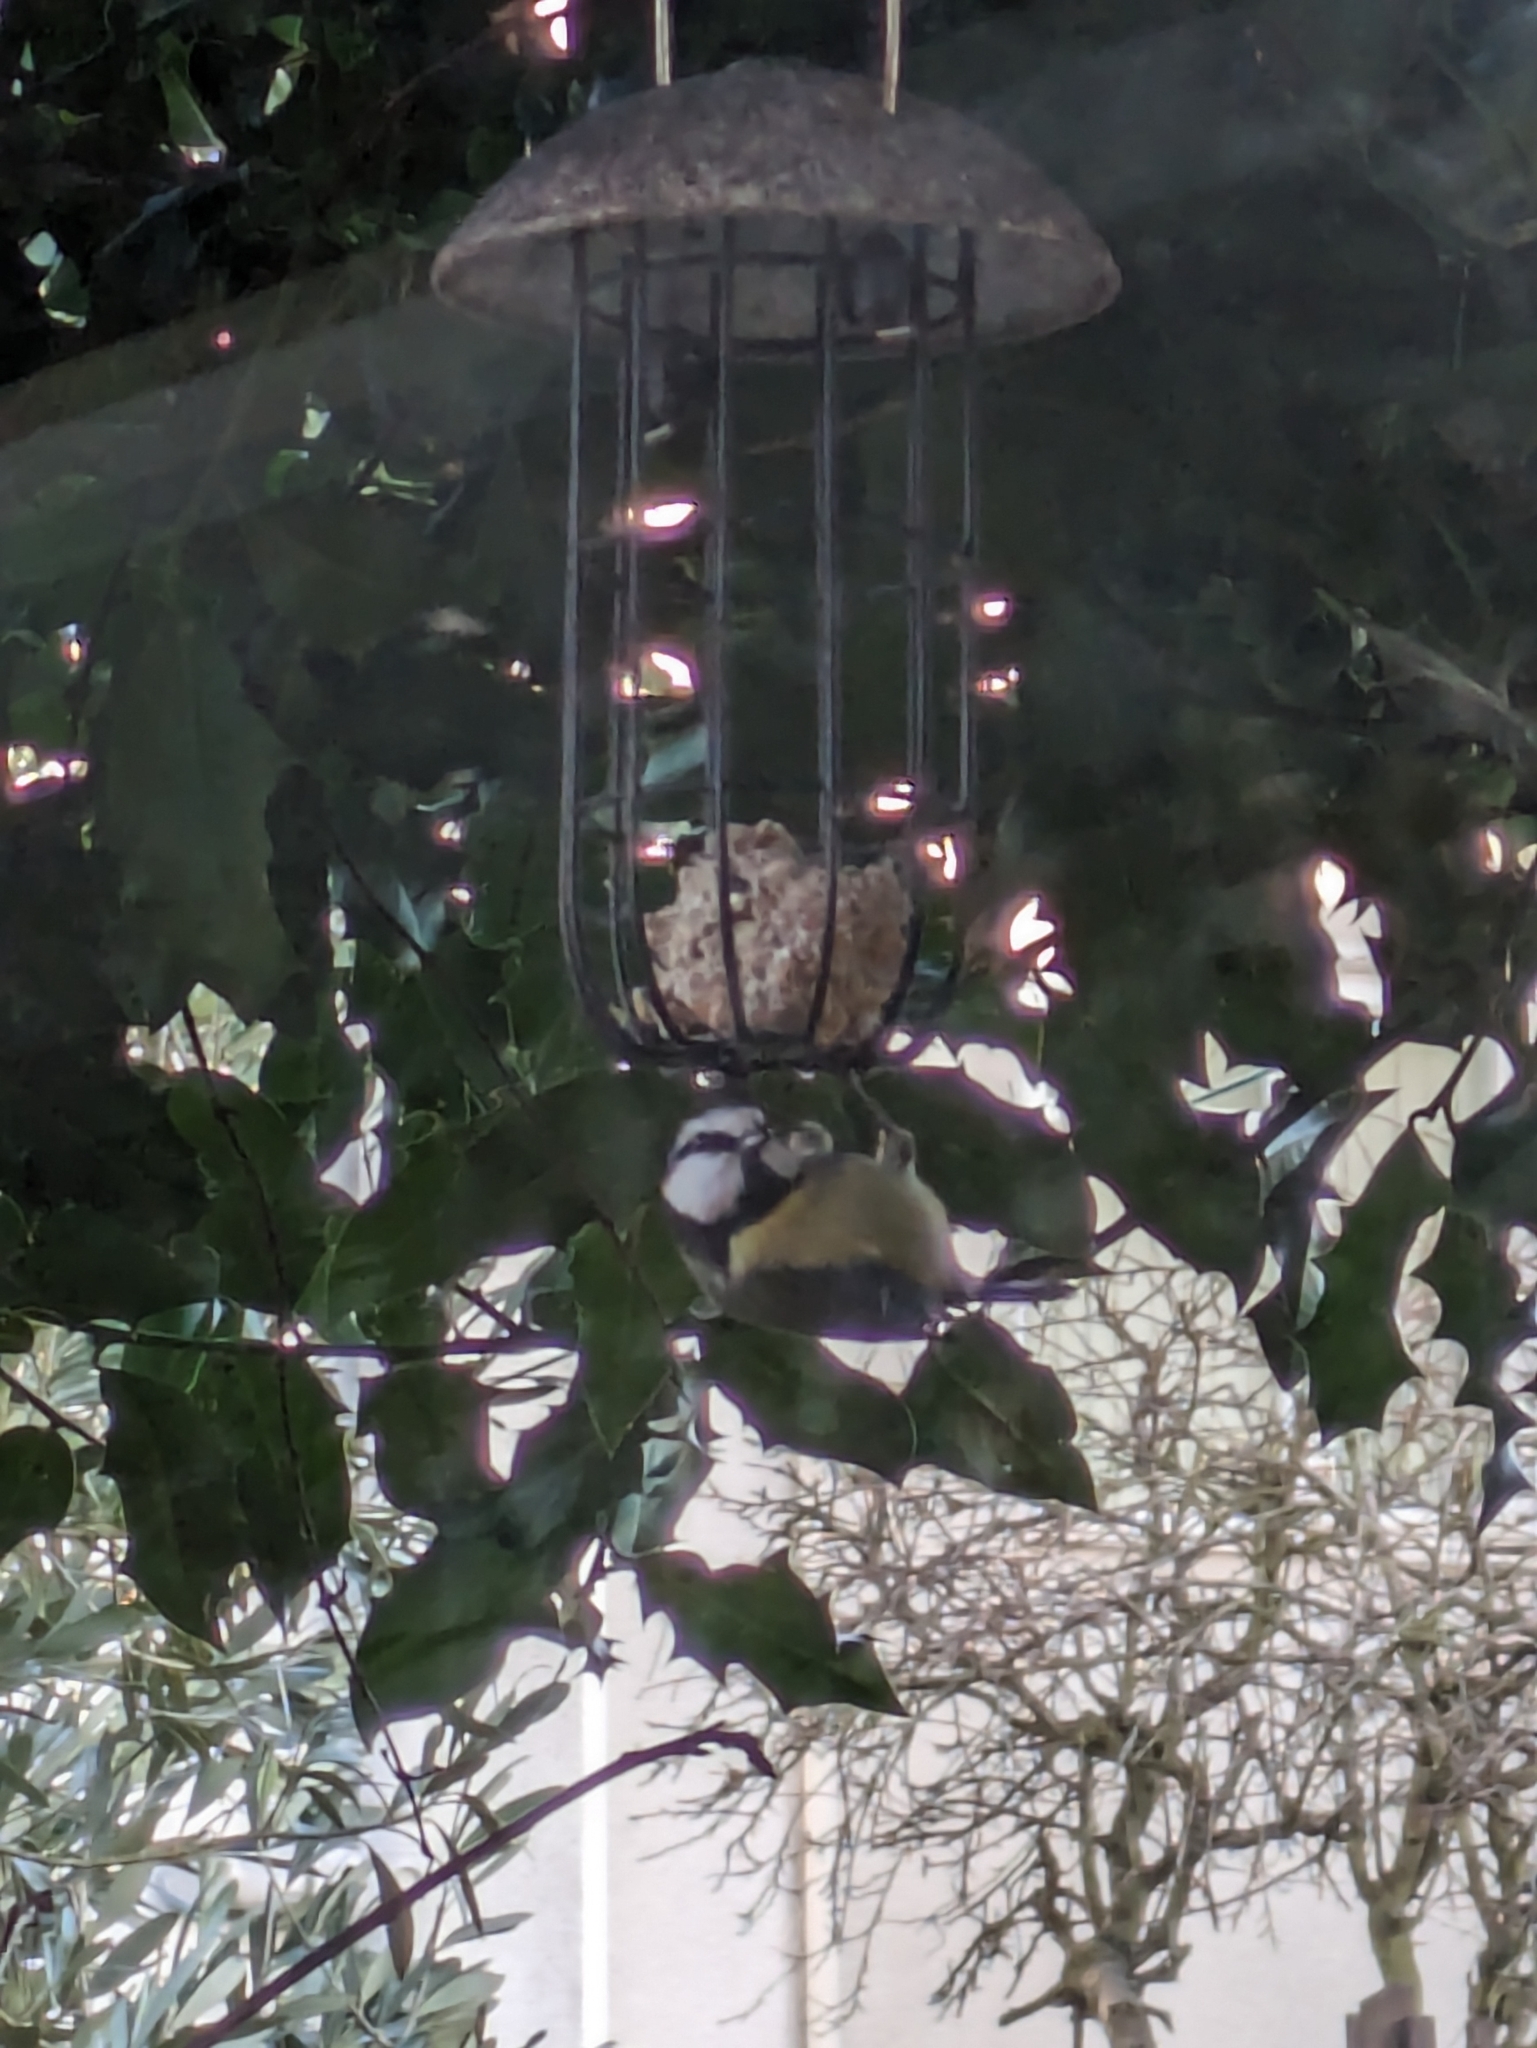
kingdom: Animalia
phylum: Chordata
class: Aves
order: Passeriformes
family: Paridae
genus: Cyanistes
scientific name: Cyanistes caeruleus
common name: Eurasian blue tit
